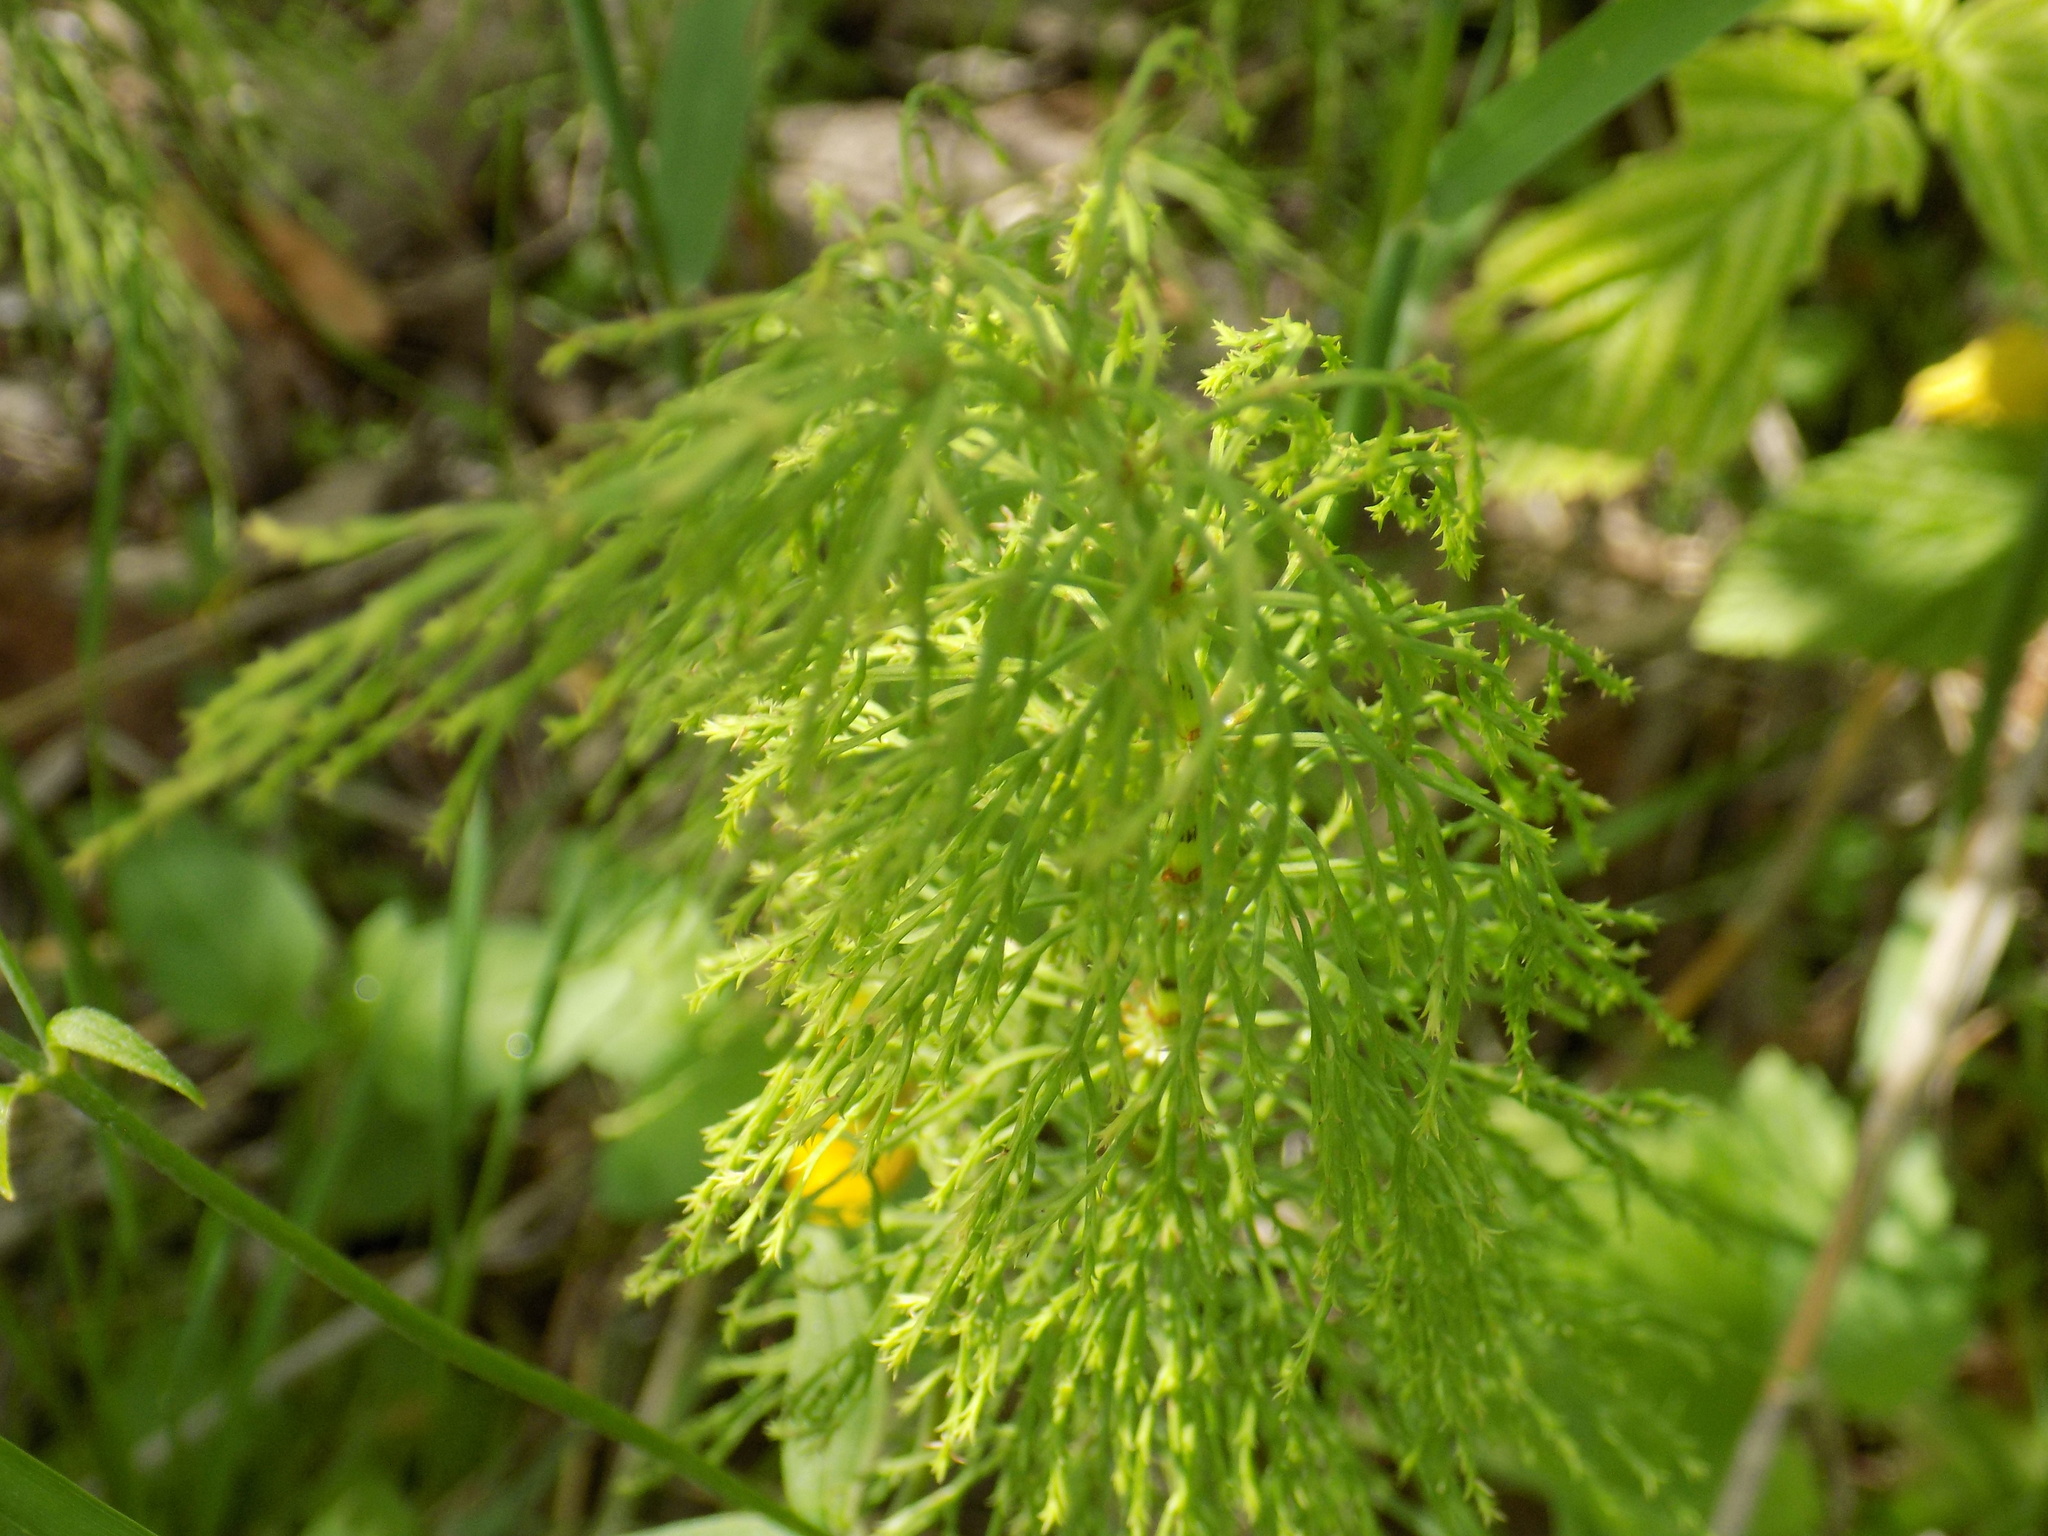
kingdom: Plantae
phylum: Tracheophyta
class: Polypodiopsida
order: Equisetales
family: Equisetaceae
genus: Equisetum
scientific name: Equisetum sylvaticum
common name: Wood horsetail
